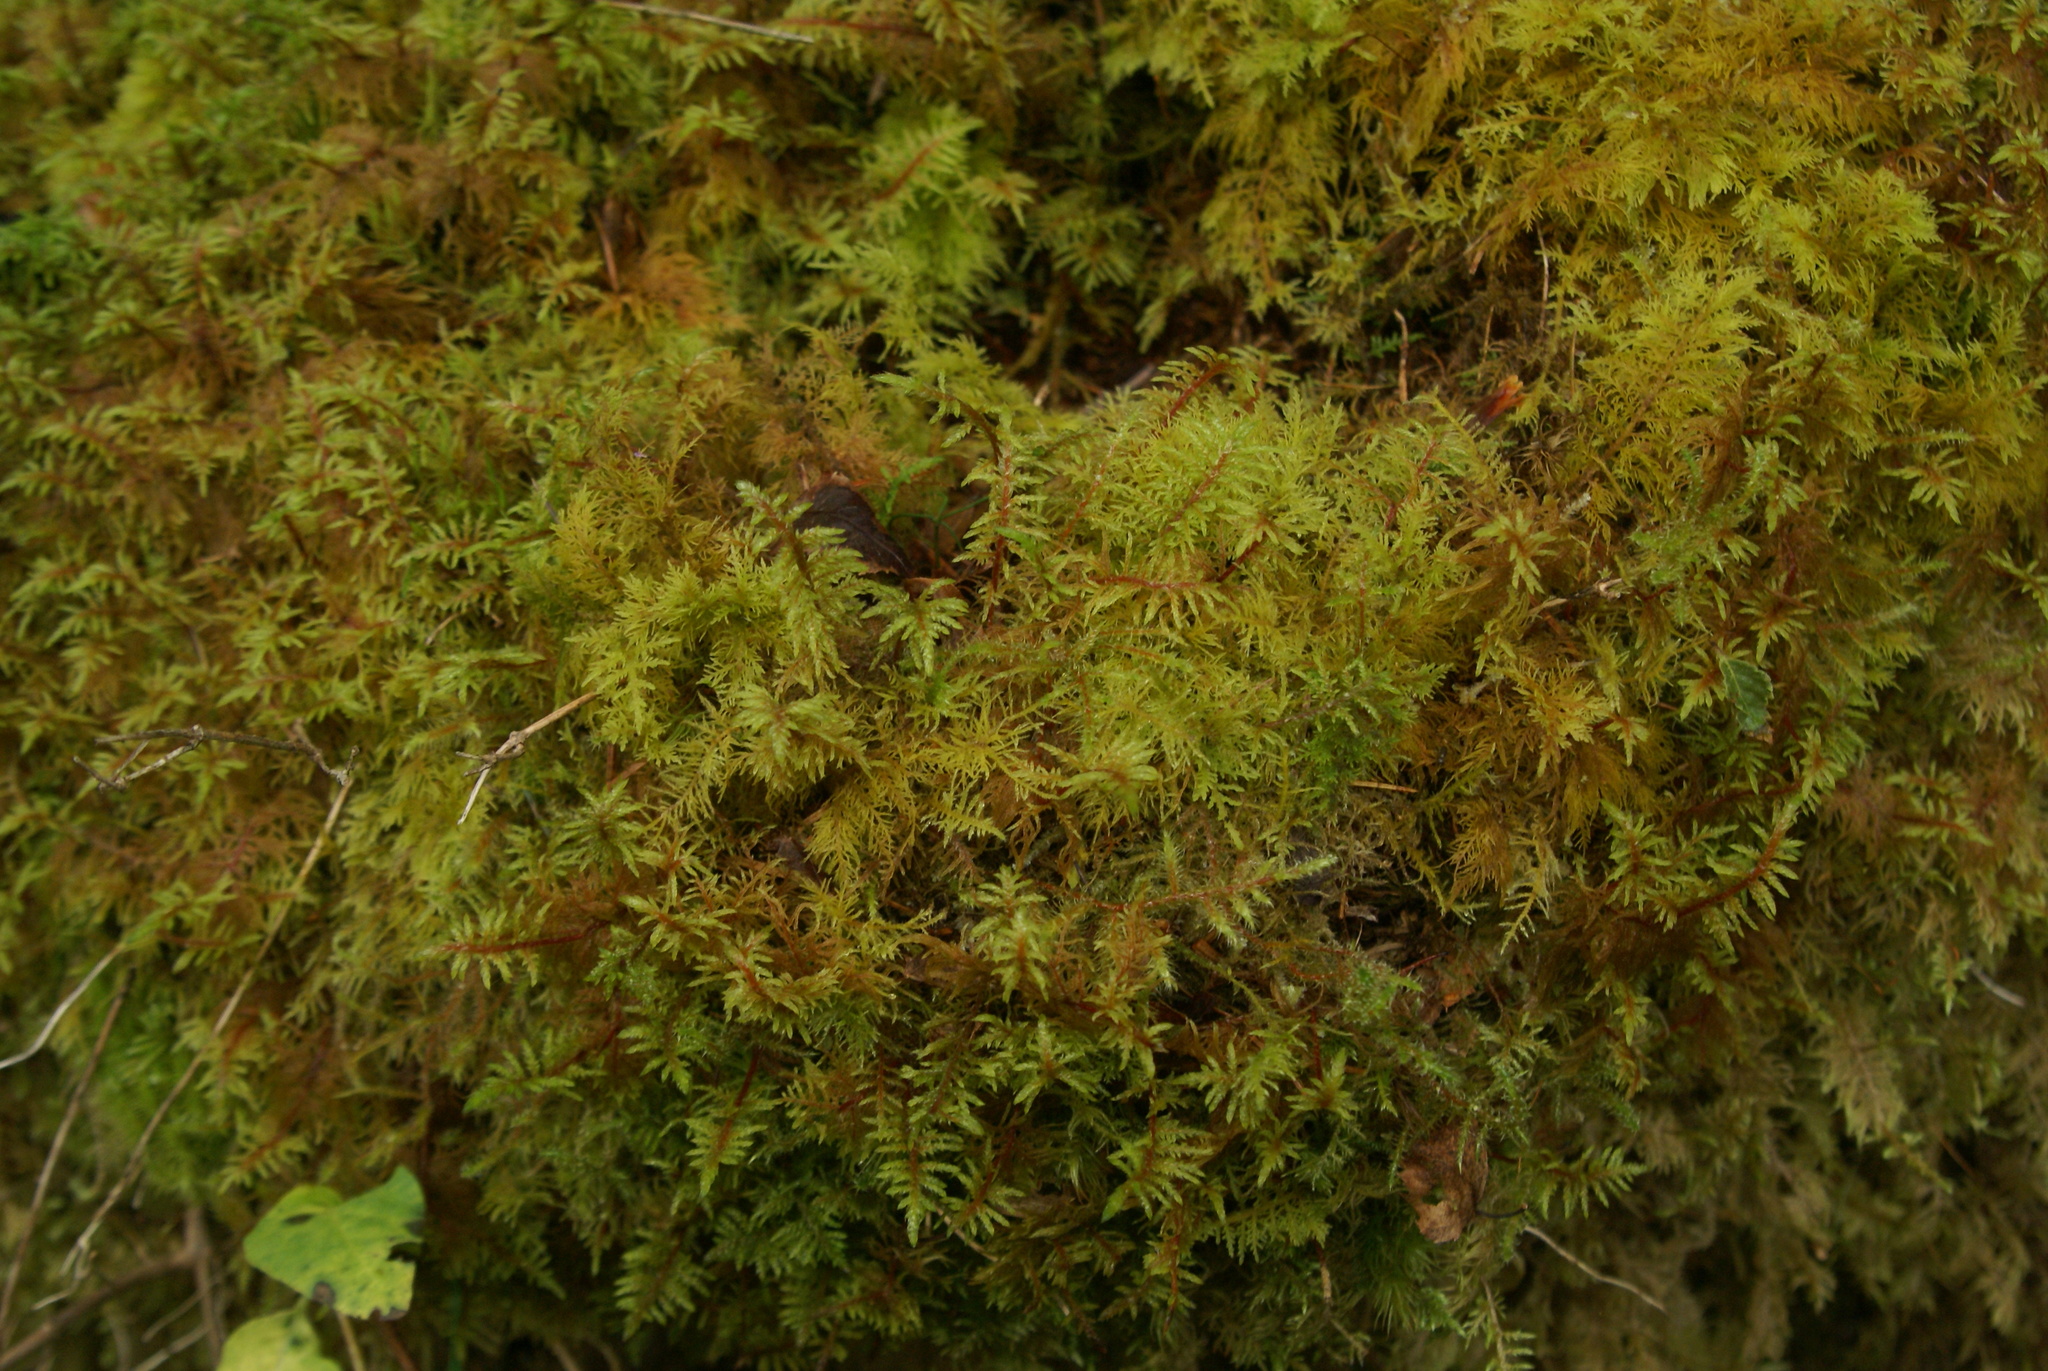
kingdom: Plantae
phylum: Bryophyta
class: Bryopsida
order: Hypnales
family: Hylocomiaceae
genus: Hylocomium
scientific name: Hylocomium splendens
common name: Stairstep moss
